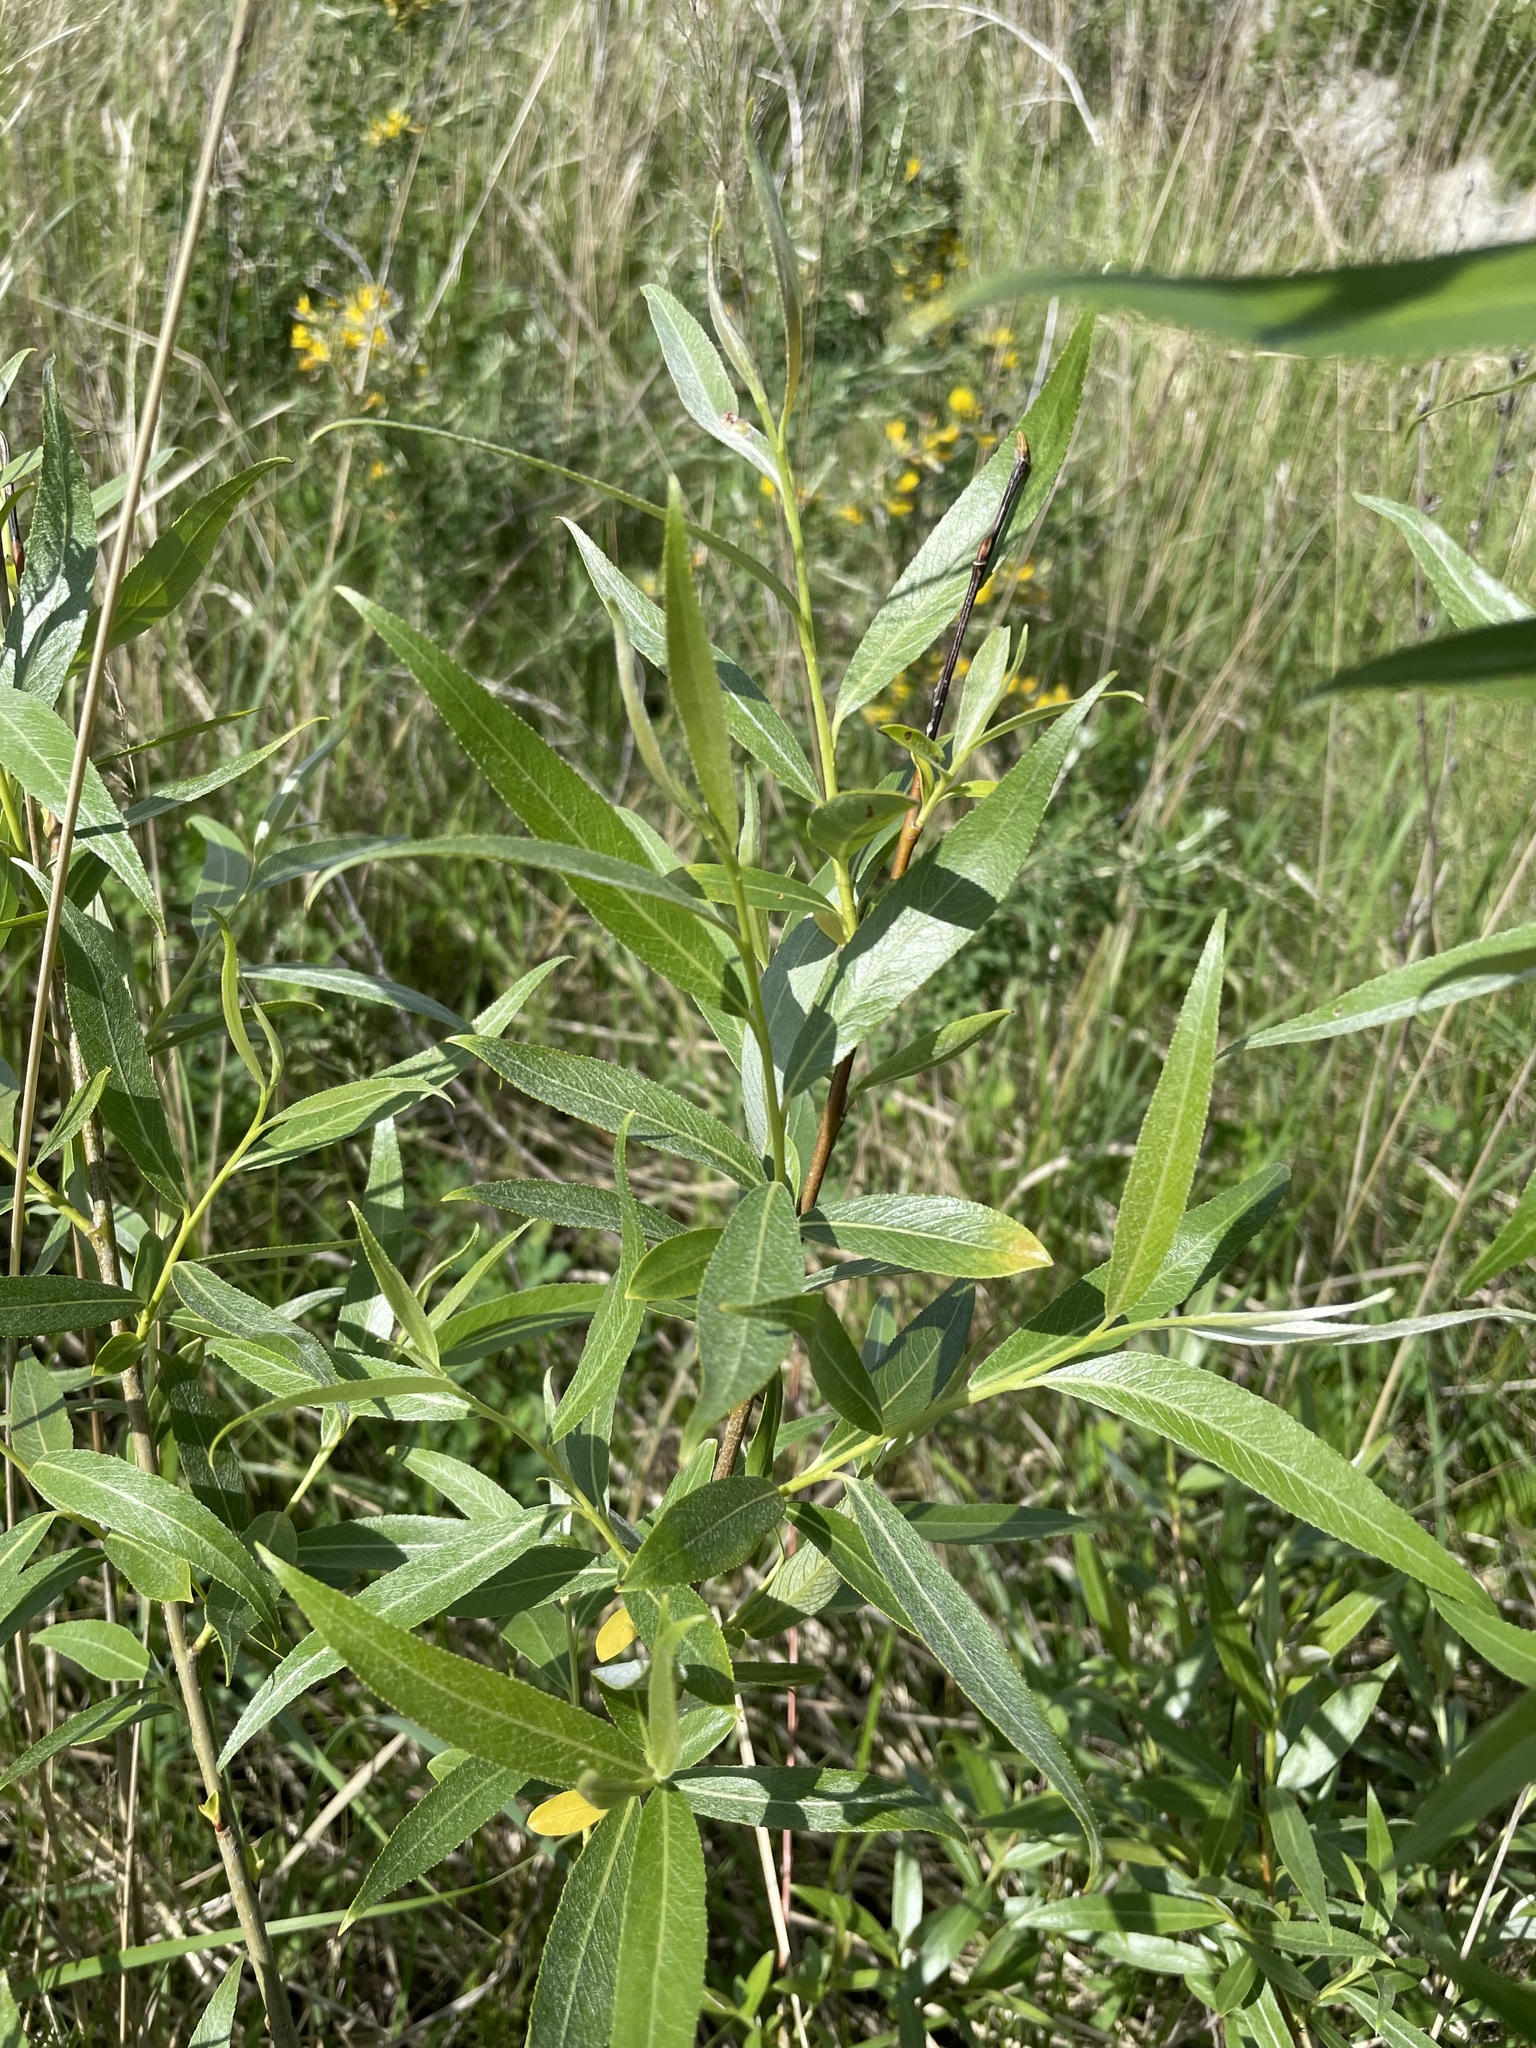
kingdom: Plantae
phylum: Tracheophyta
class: Magnoliopsida
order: Malpighiales
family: Salicaceae
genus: Salix
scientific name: Salix triandra
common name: Almond willow
